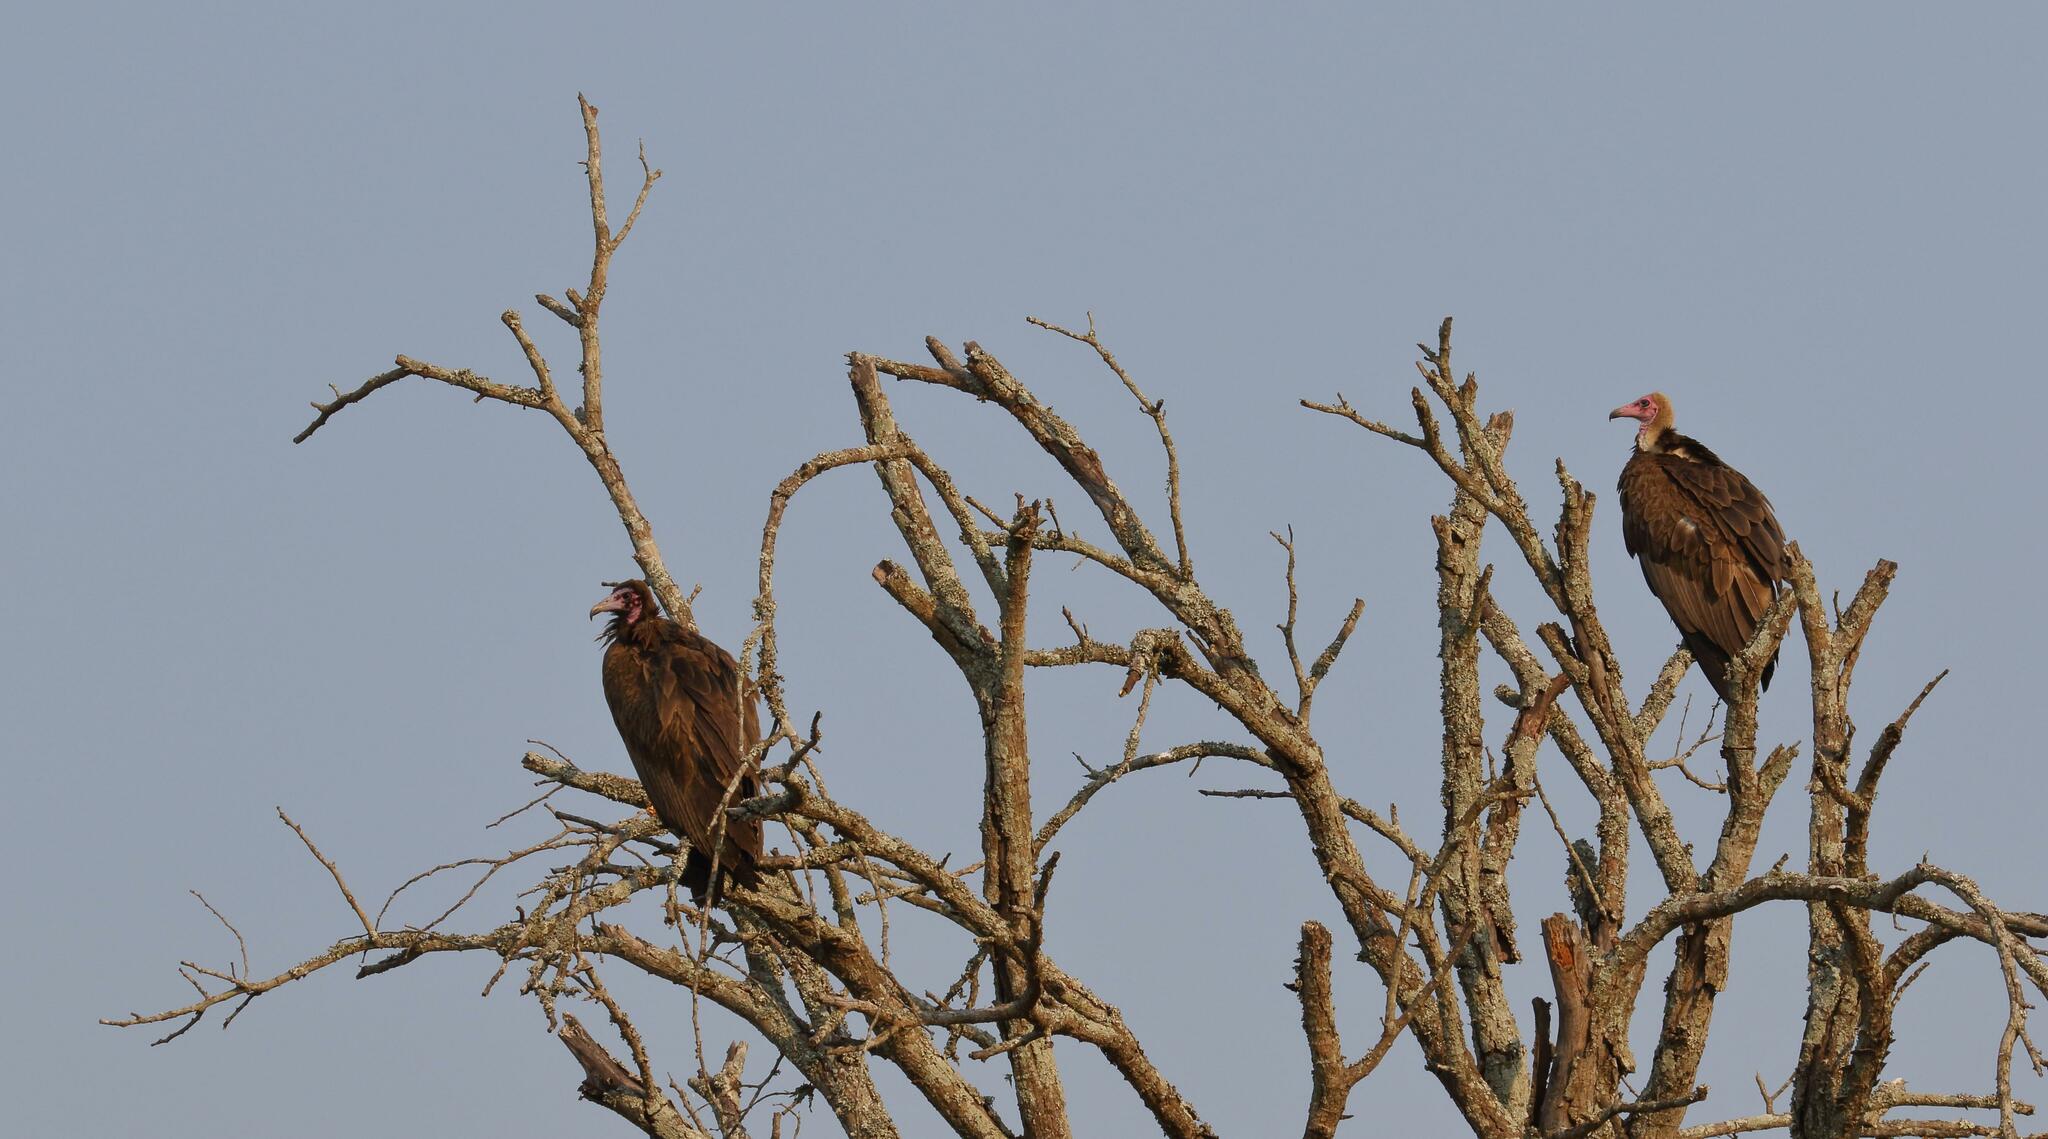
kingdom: Animalia
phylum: Chordata
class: Aves
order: Accipitriformes
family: Accipitridae
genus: Necrosyrtes
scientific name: Necrosyrtes monachus
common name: Hooded vulture
